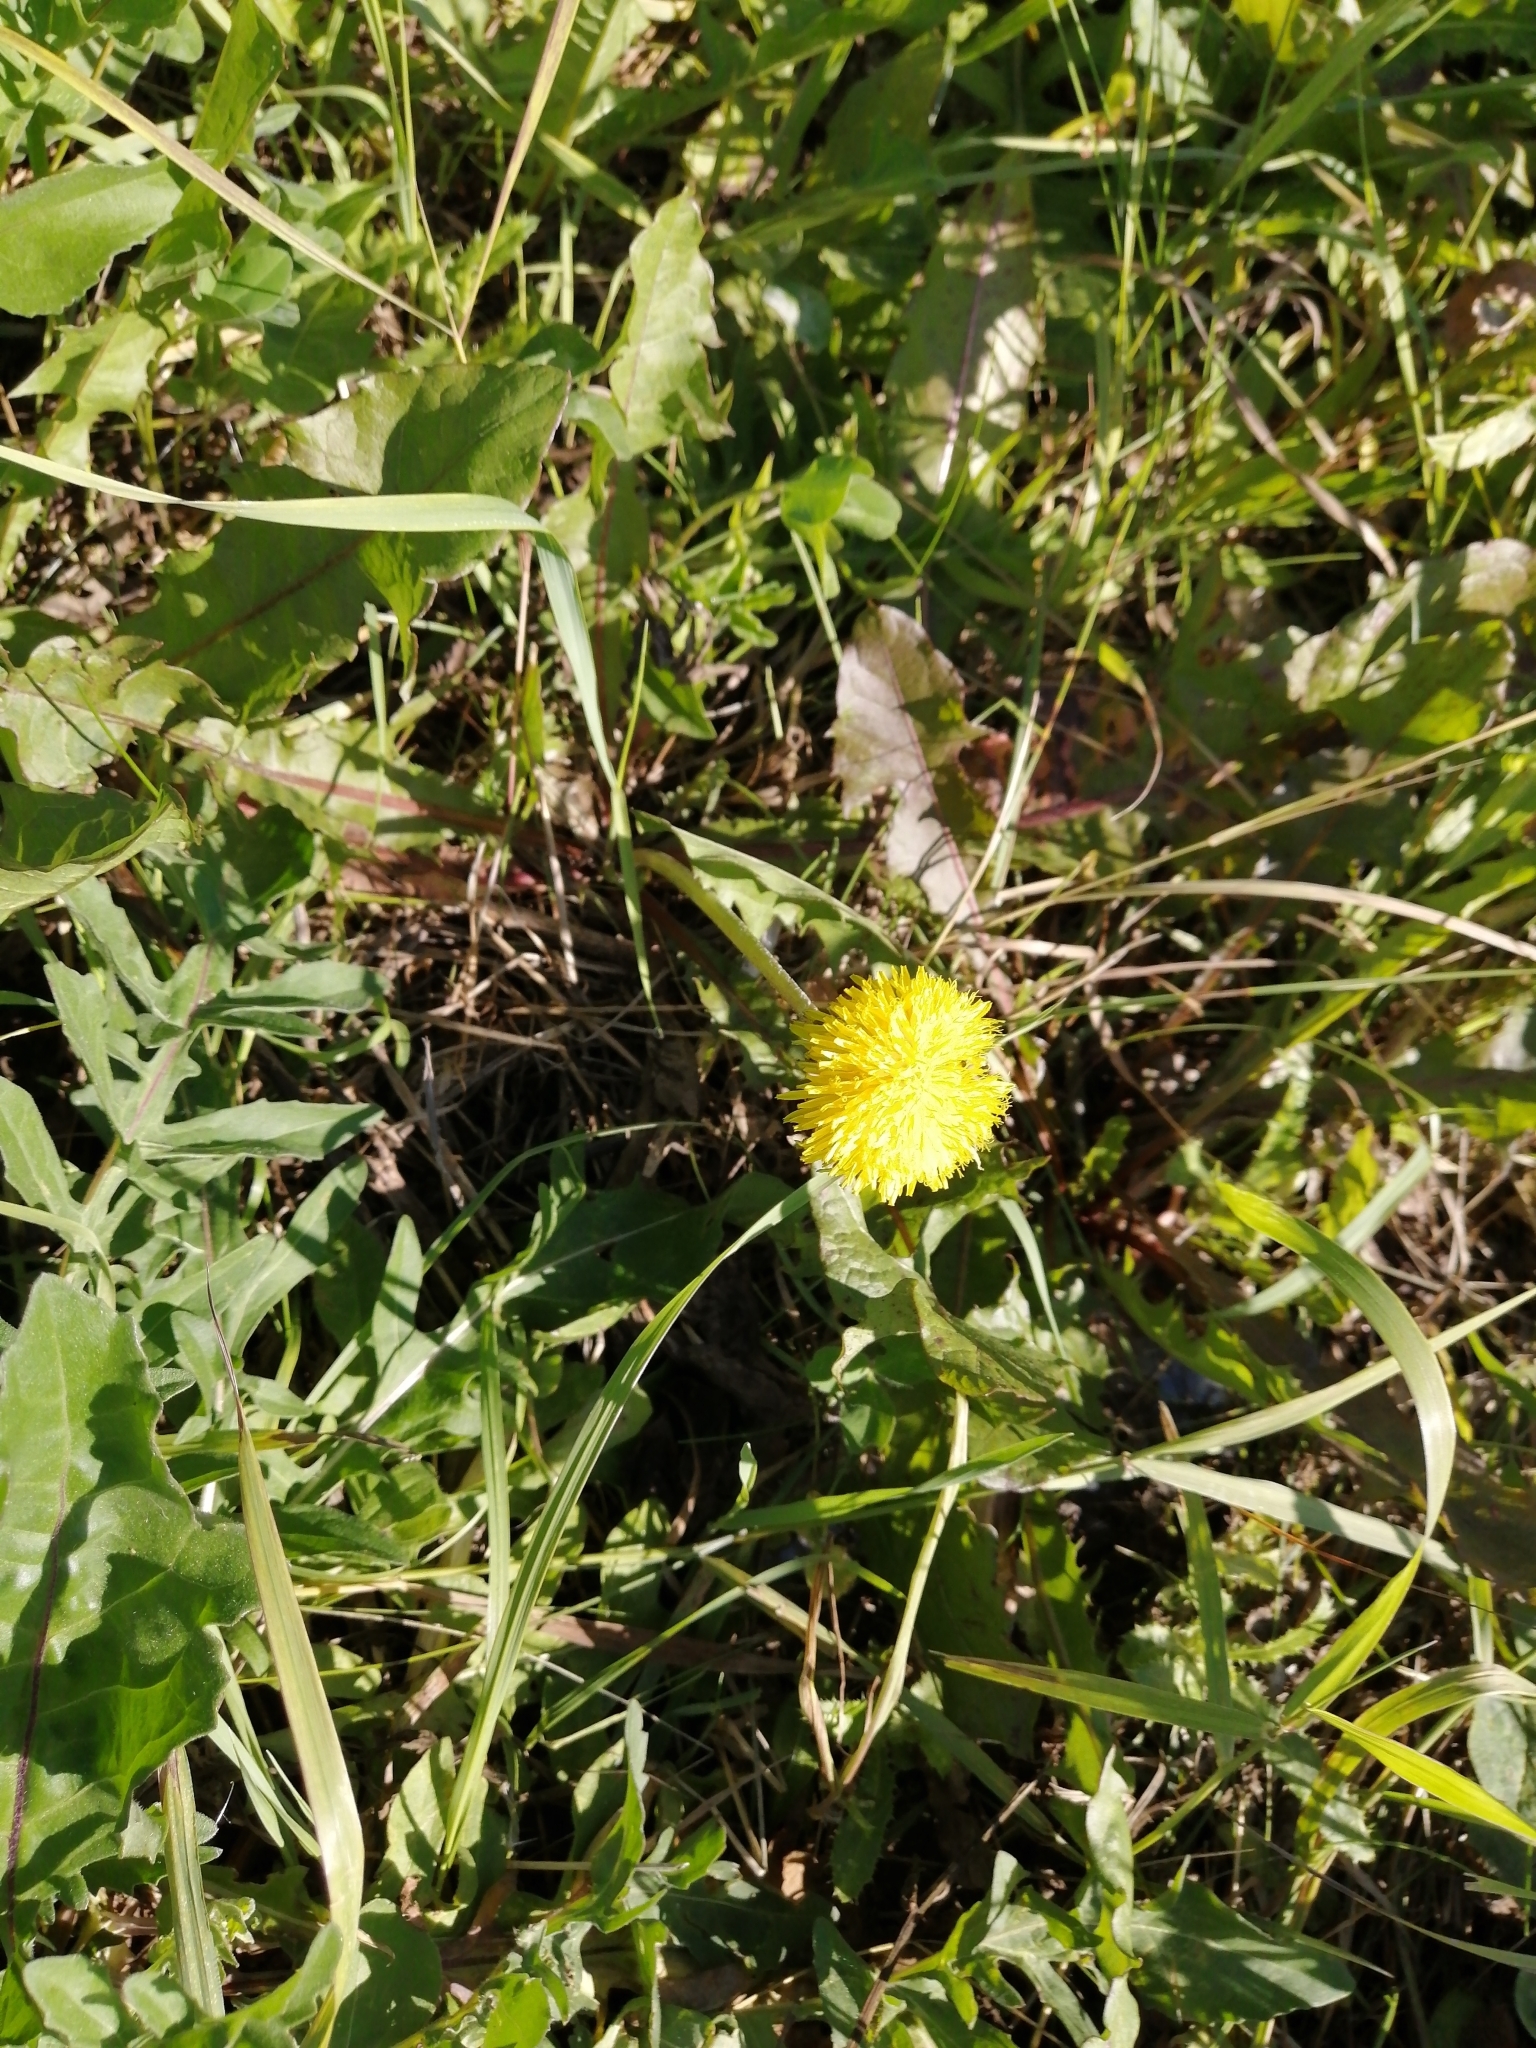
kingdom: Plantae
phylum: Tracheophyta
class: Magnoliopsida
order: Asterales
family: Asteraceae
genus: Taraxacum
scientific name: Taraxacum officinale
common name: Common dandelion
